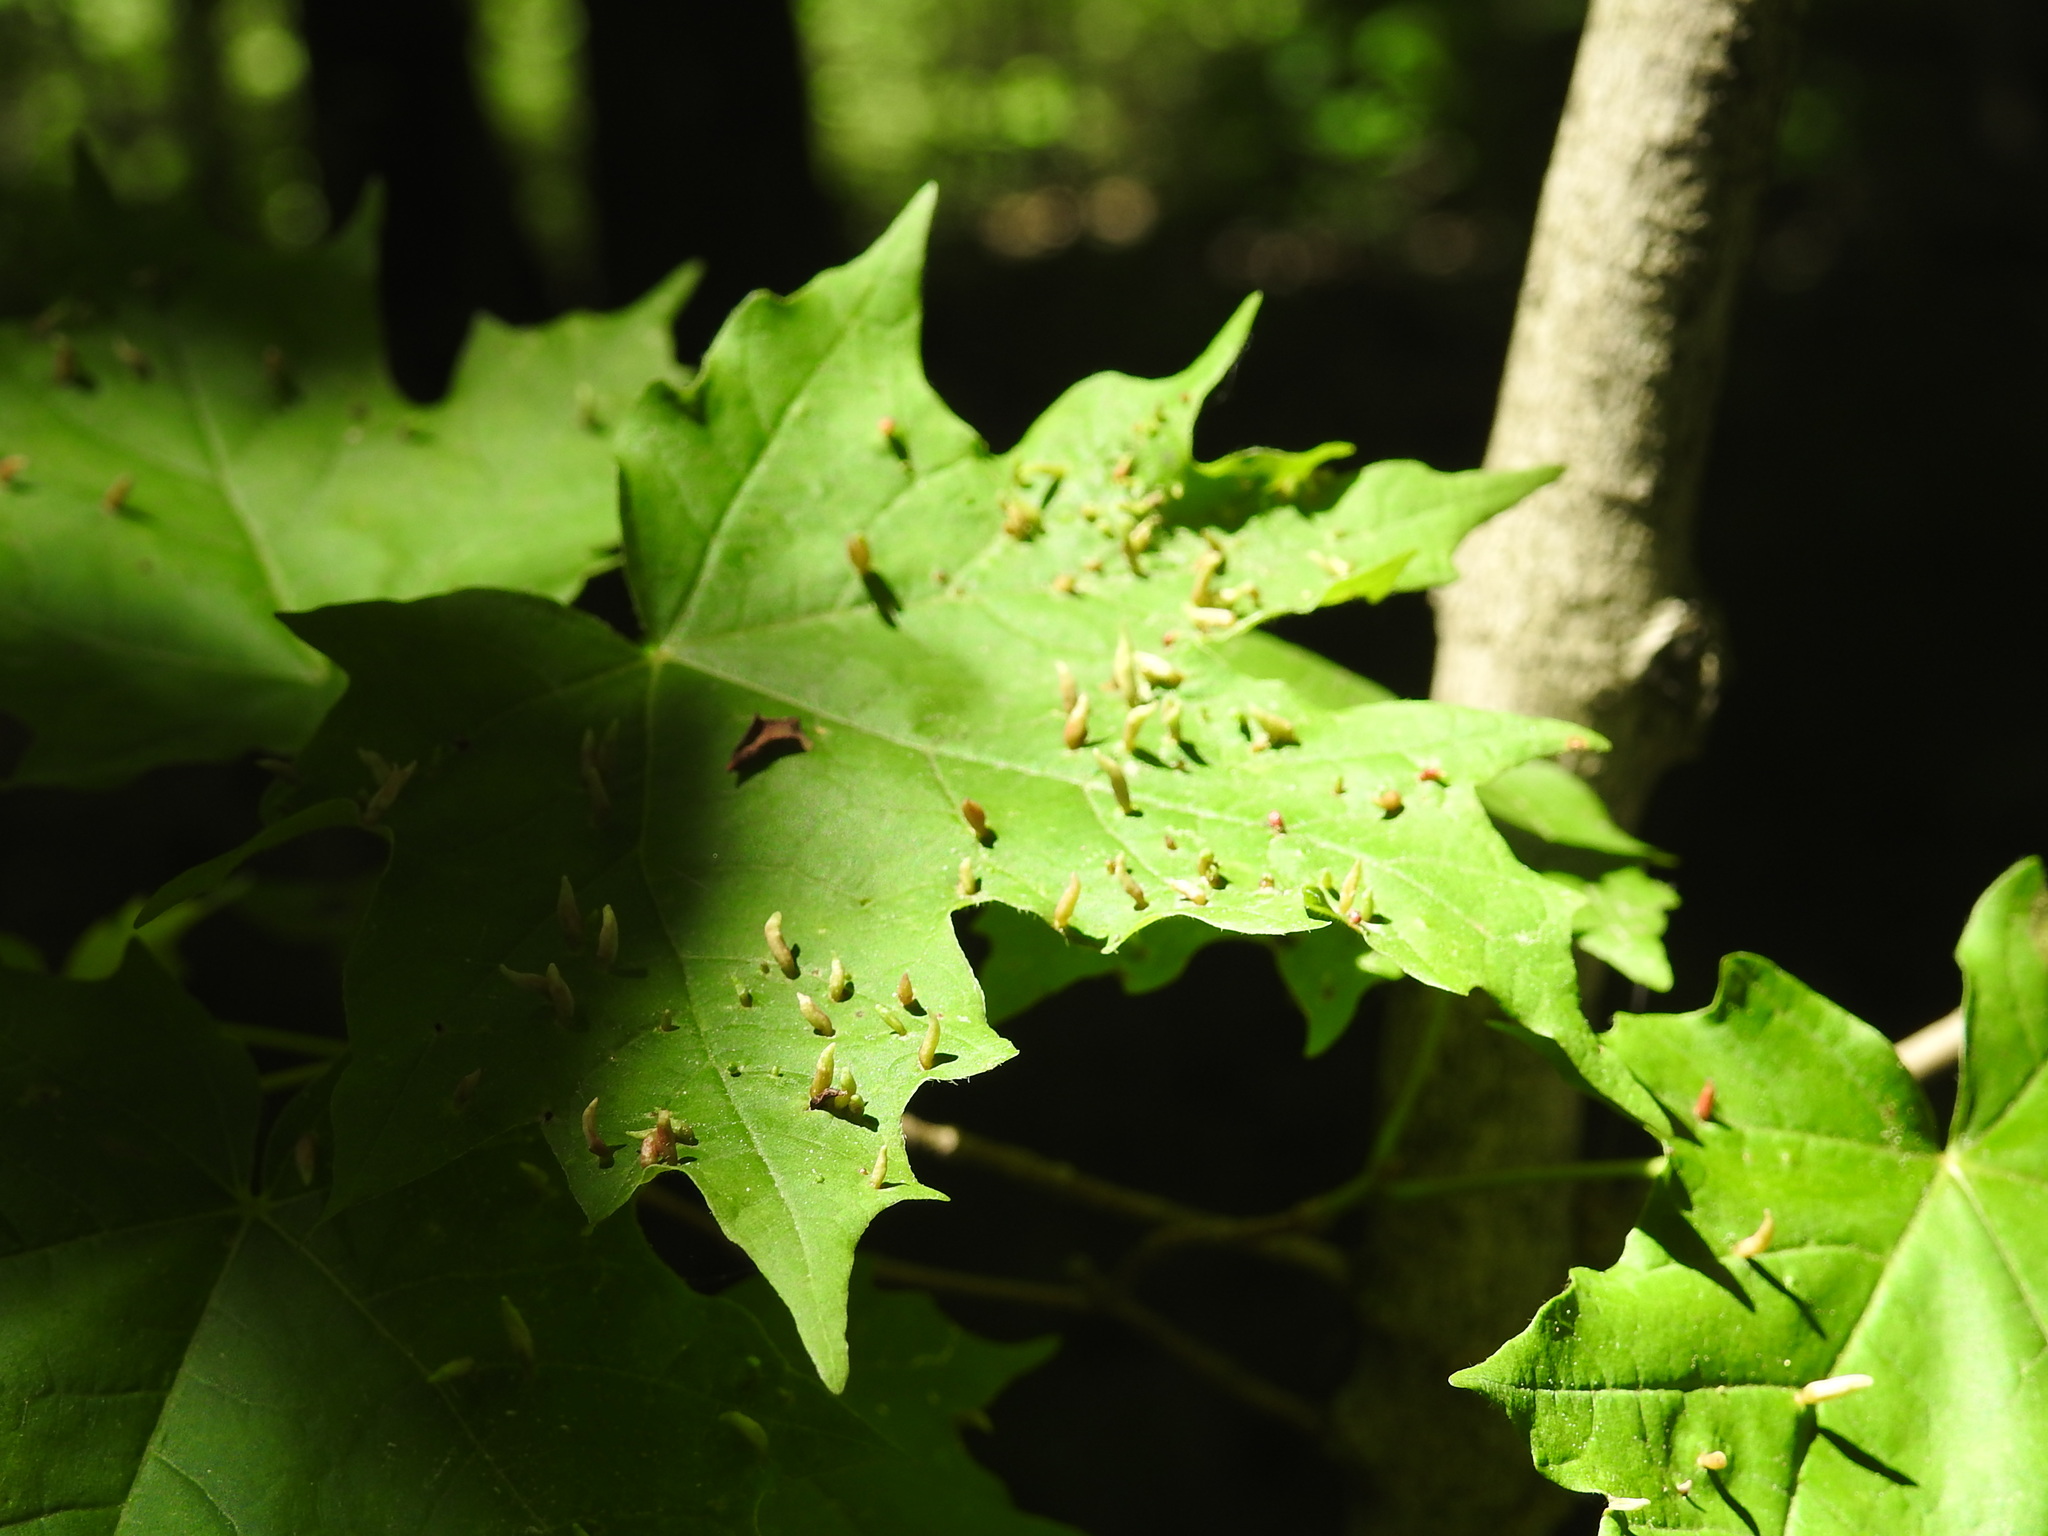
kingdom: Animalia
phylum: Arthropoda
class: Arachnida
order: Trombidiformes
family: Eriophyidae
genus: Vasates
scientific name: Vasates aceriscrumena
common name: Maple spindle gall mite
